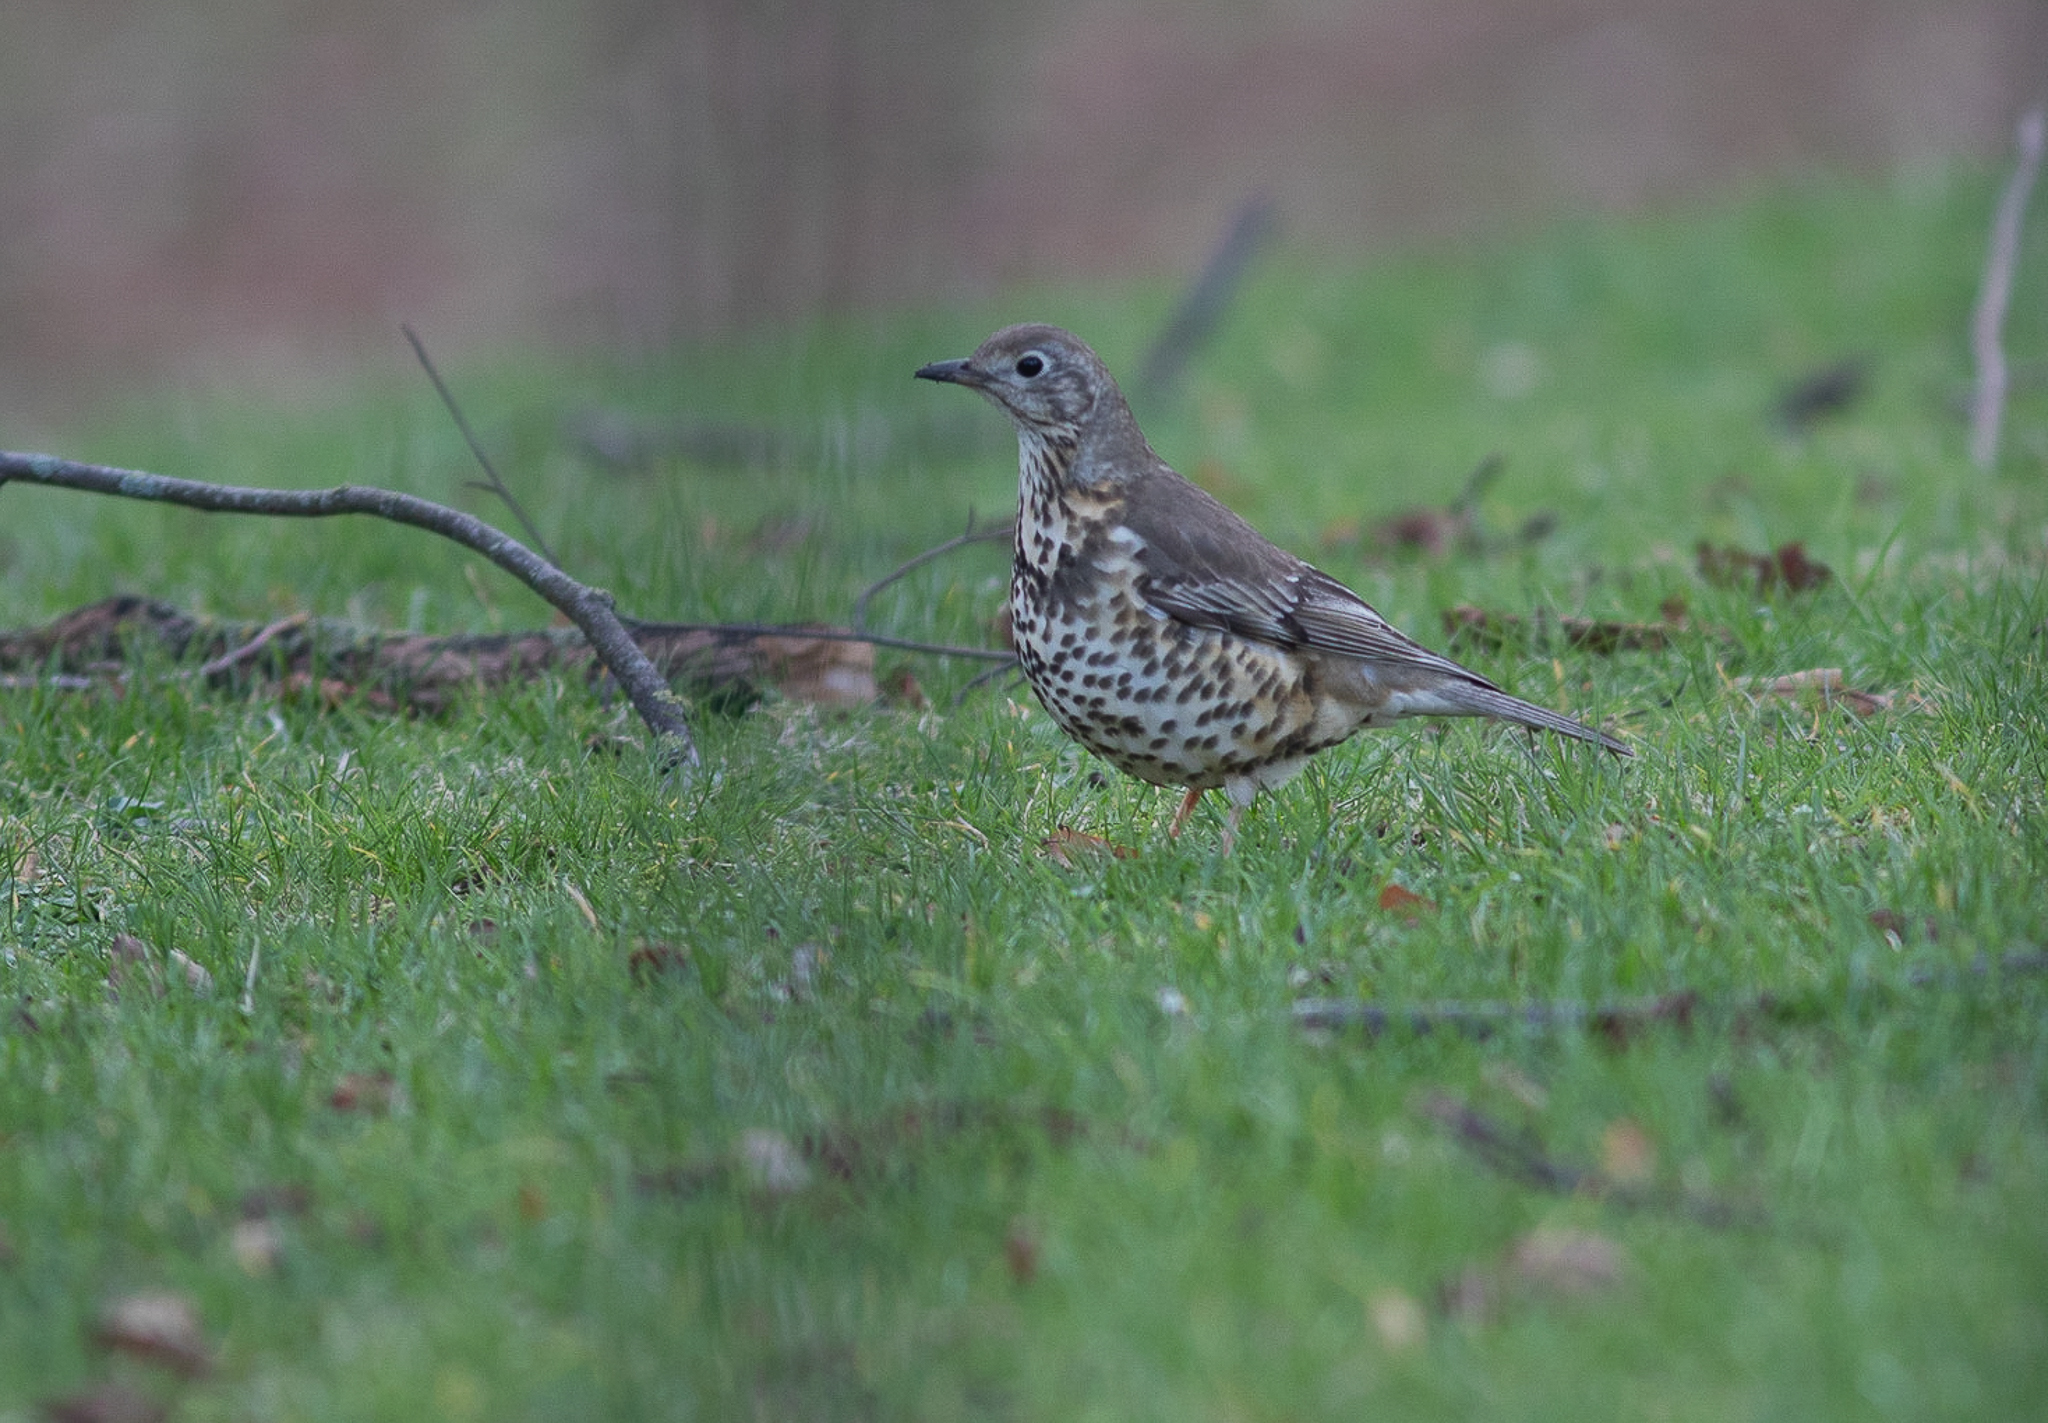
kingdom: Animalia
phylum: Chordata
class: Aves
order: Passeriformes
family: Turdidae
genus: Turdus
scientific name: Turdus viscivorus
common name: Mistle thrush
